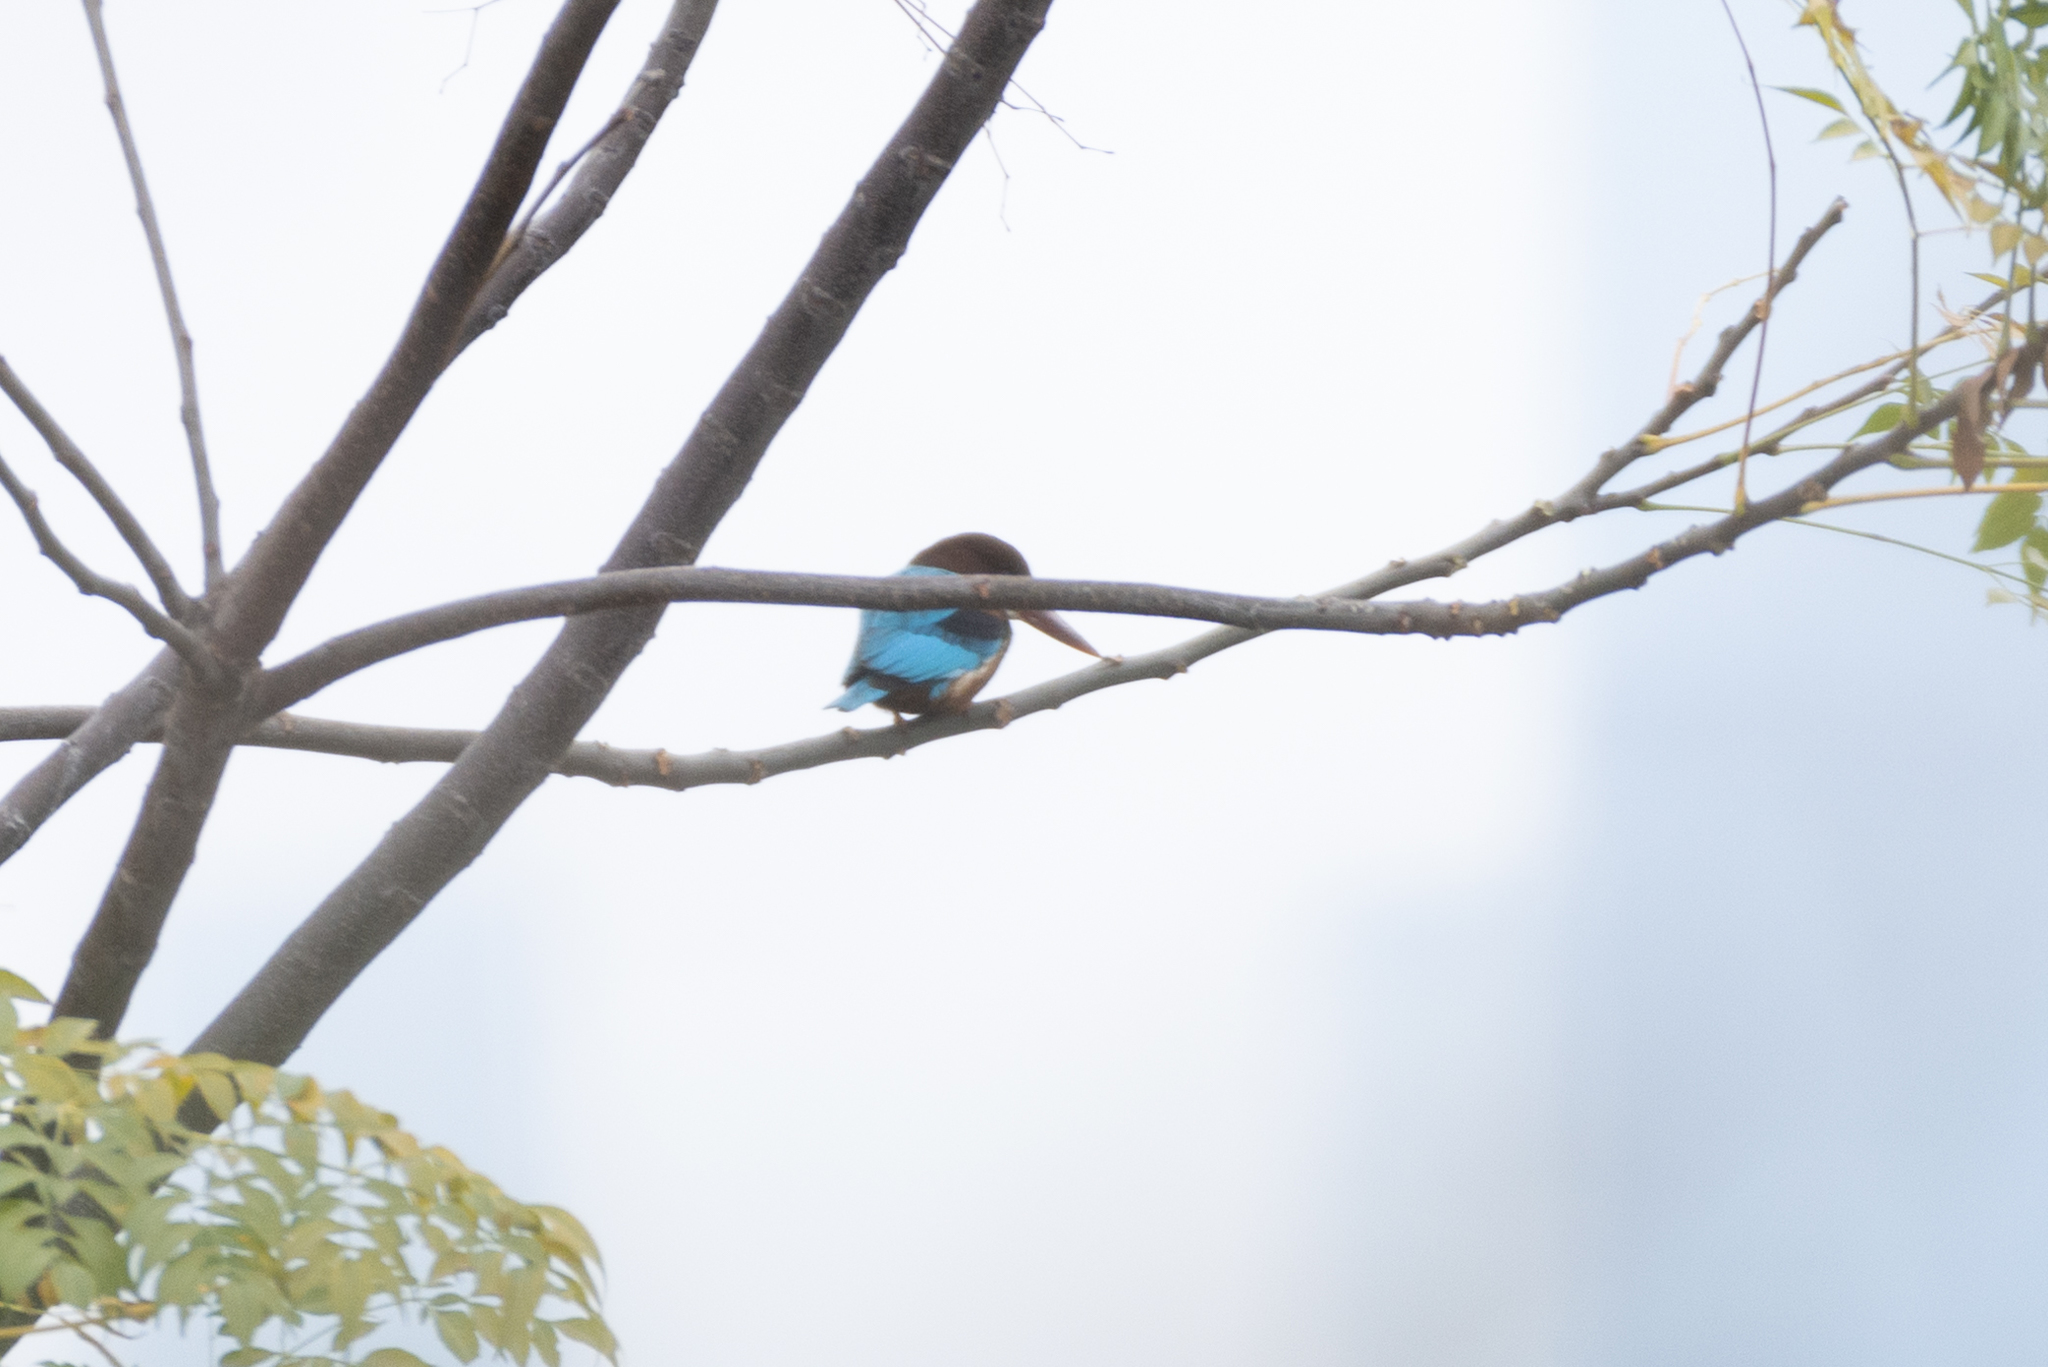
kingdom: Animalia
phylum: Chordata
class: Aves
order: Coraciiformes
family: Alcedinidae
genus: Halcyon
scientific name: Halcyon smyrnensis
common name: White-throated kingfisher
